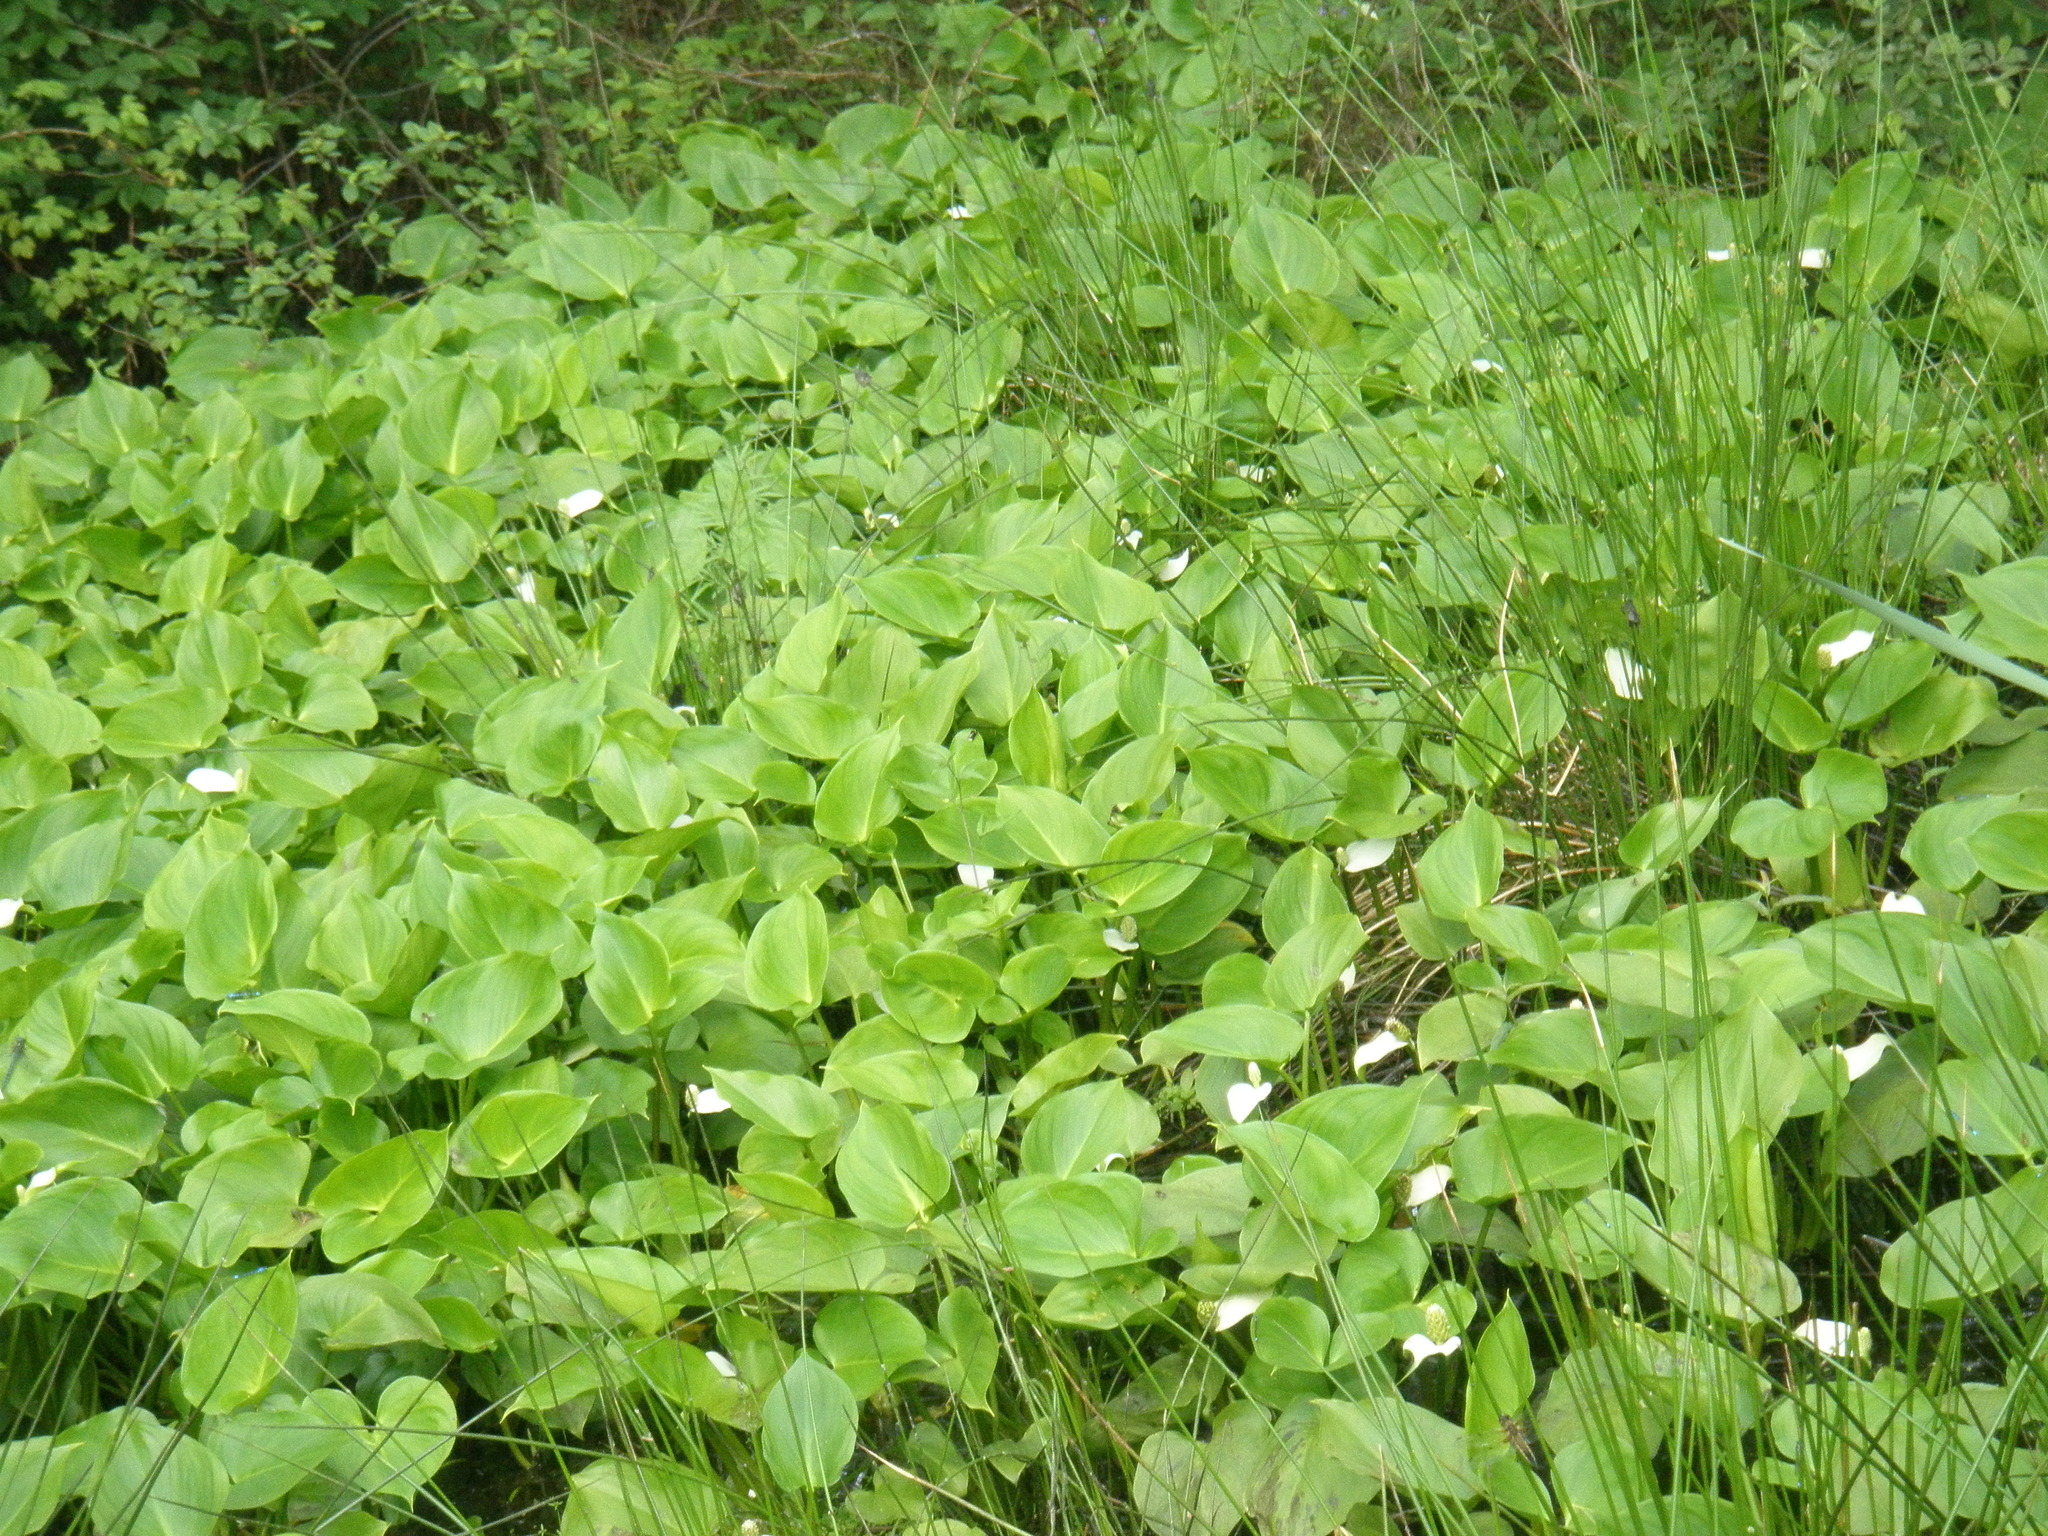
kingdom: Plantae
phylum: Tracheophyta
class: Liliopsida
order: Alismatales
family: Araceae
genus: Calla
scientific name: Calla palustris
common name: Bog arum
